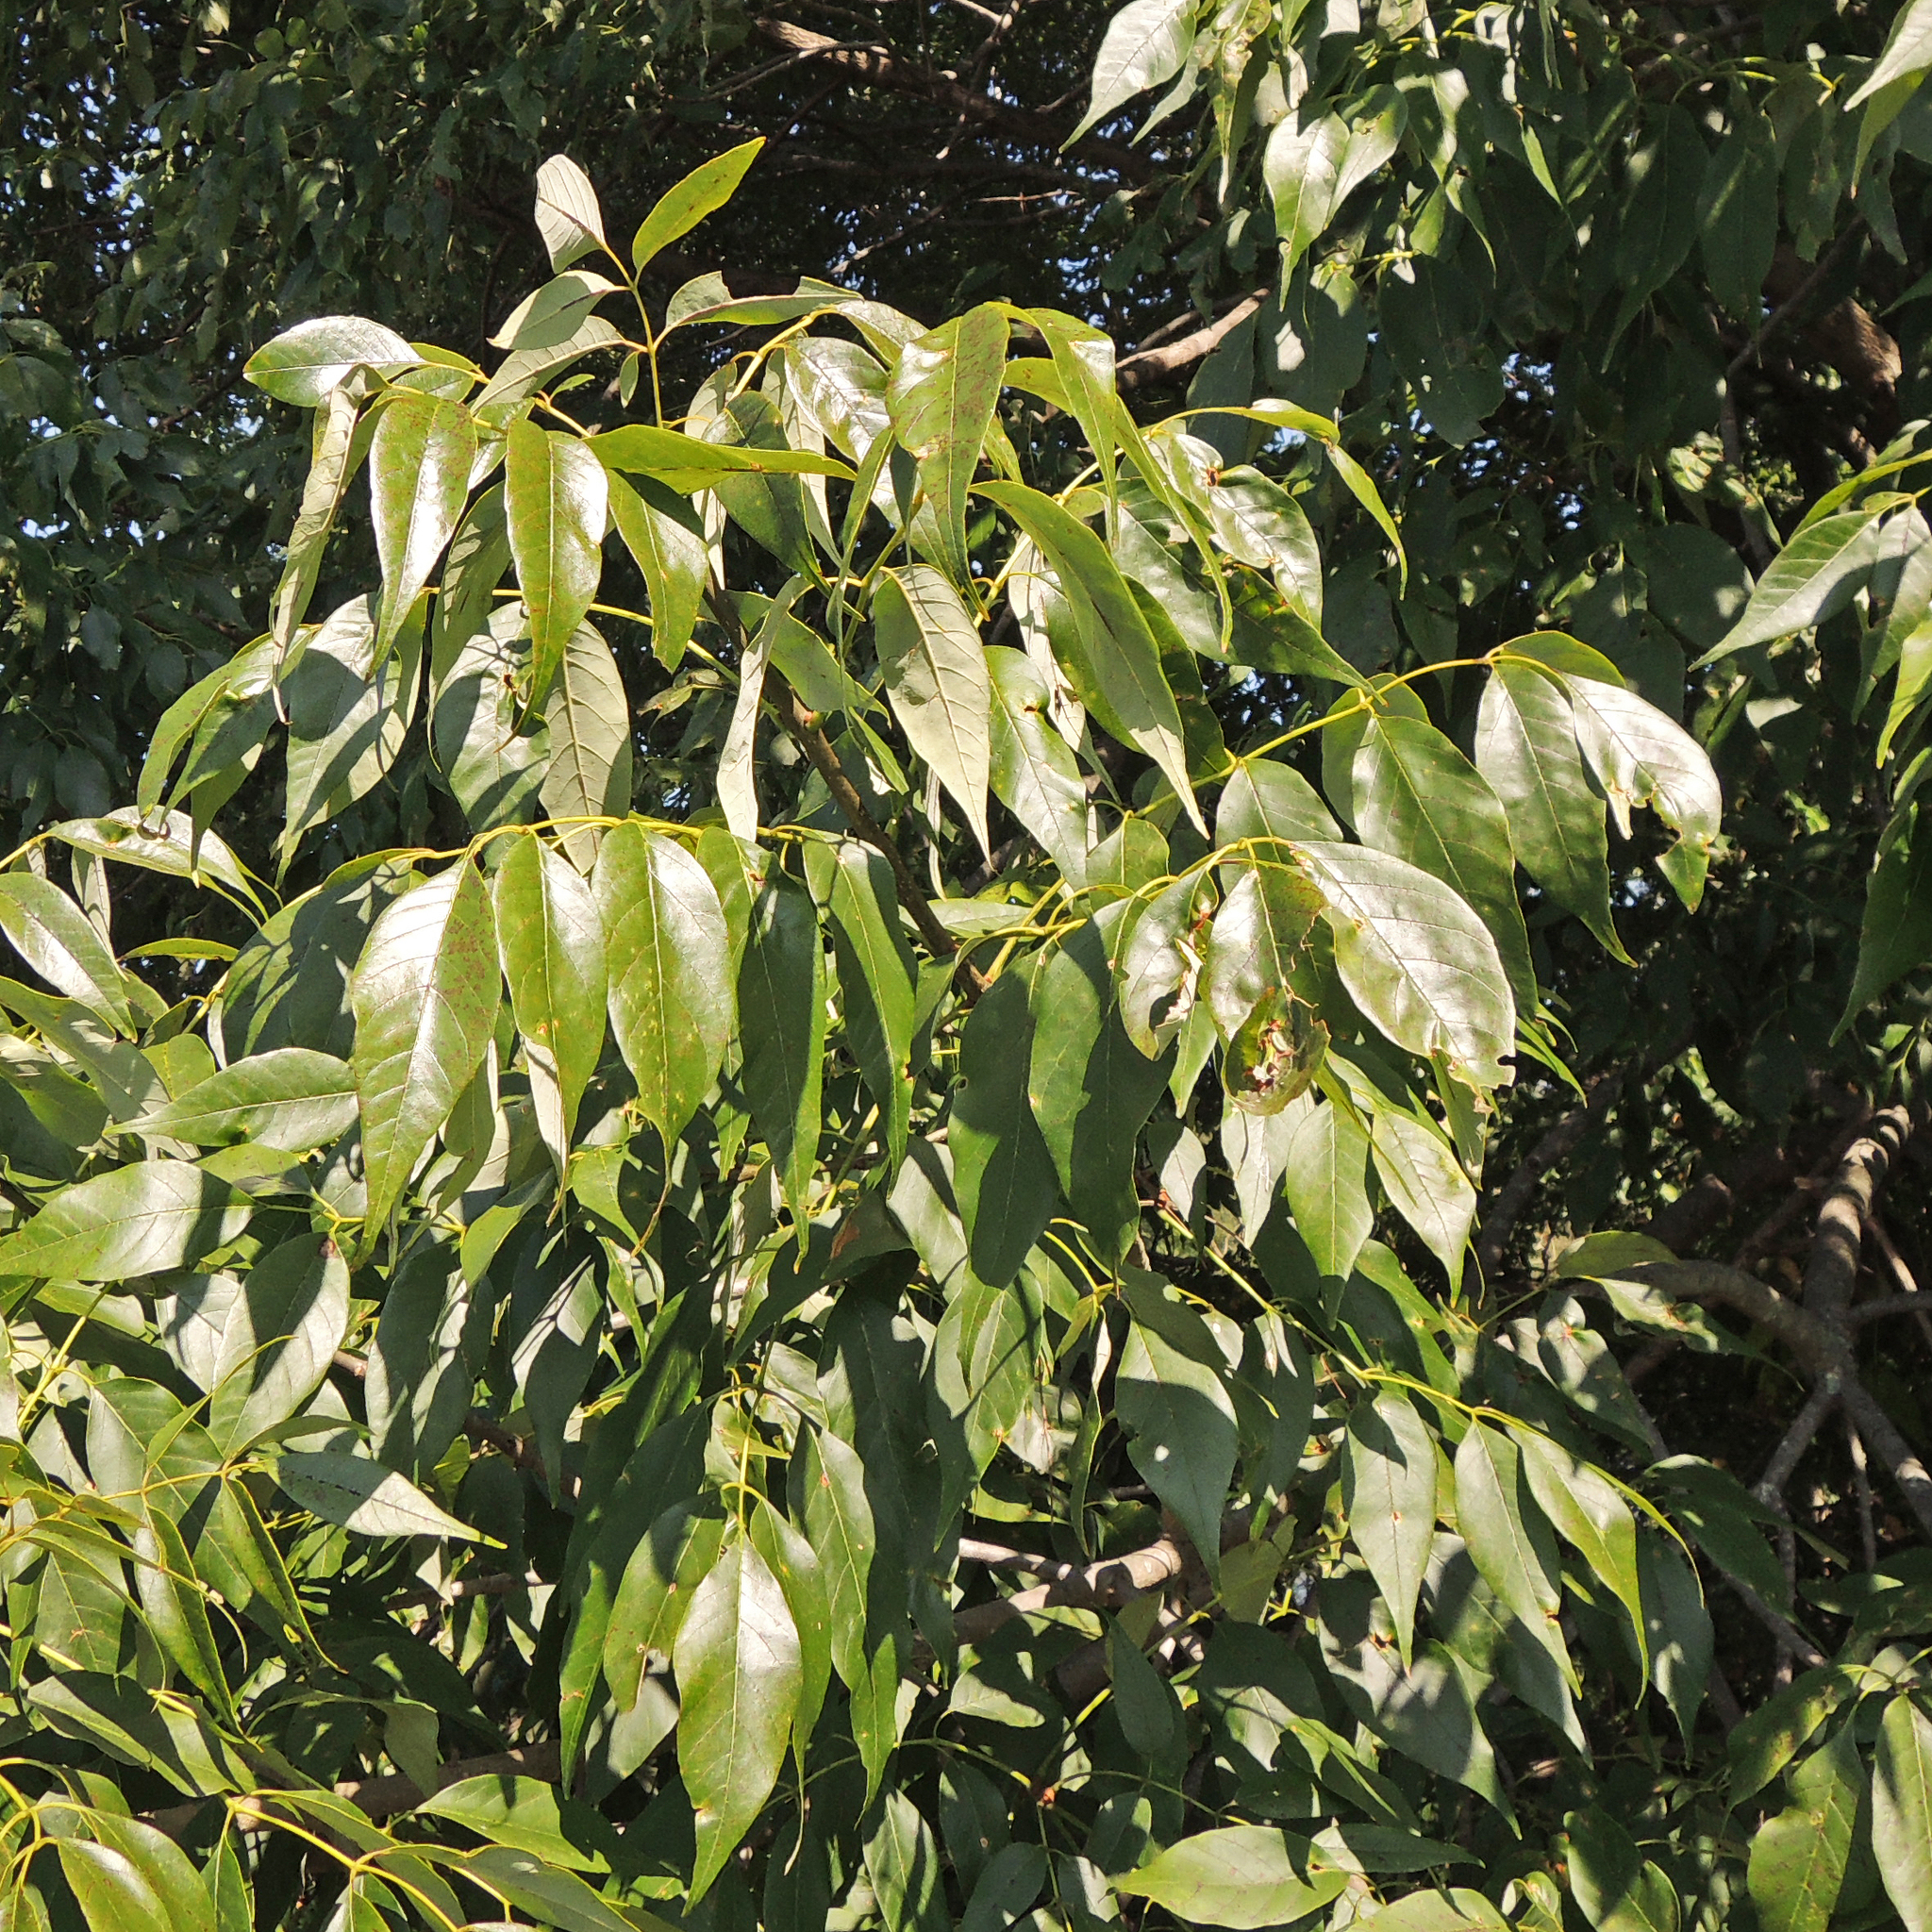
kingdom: Plantae
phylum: Tracheophyta
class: Magnoliopsida
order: Lamiales
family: Oleaceae
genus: Fraxinus
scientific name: Fraxinus americana
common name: White ash
